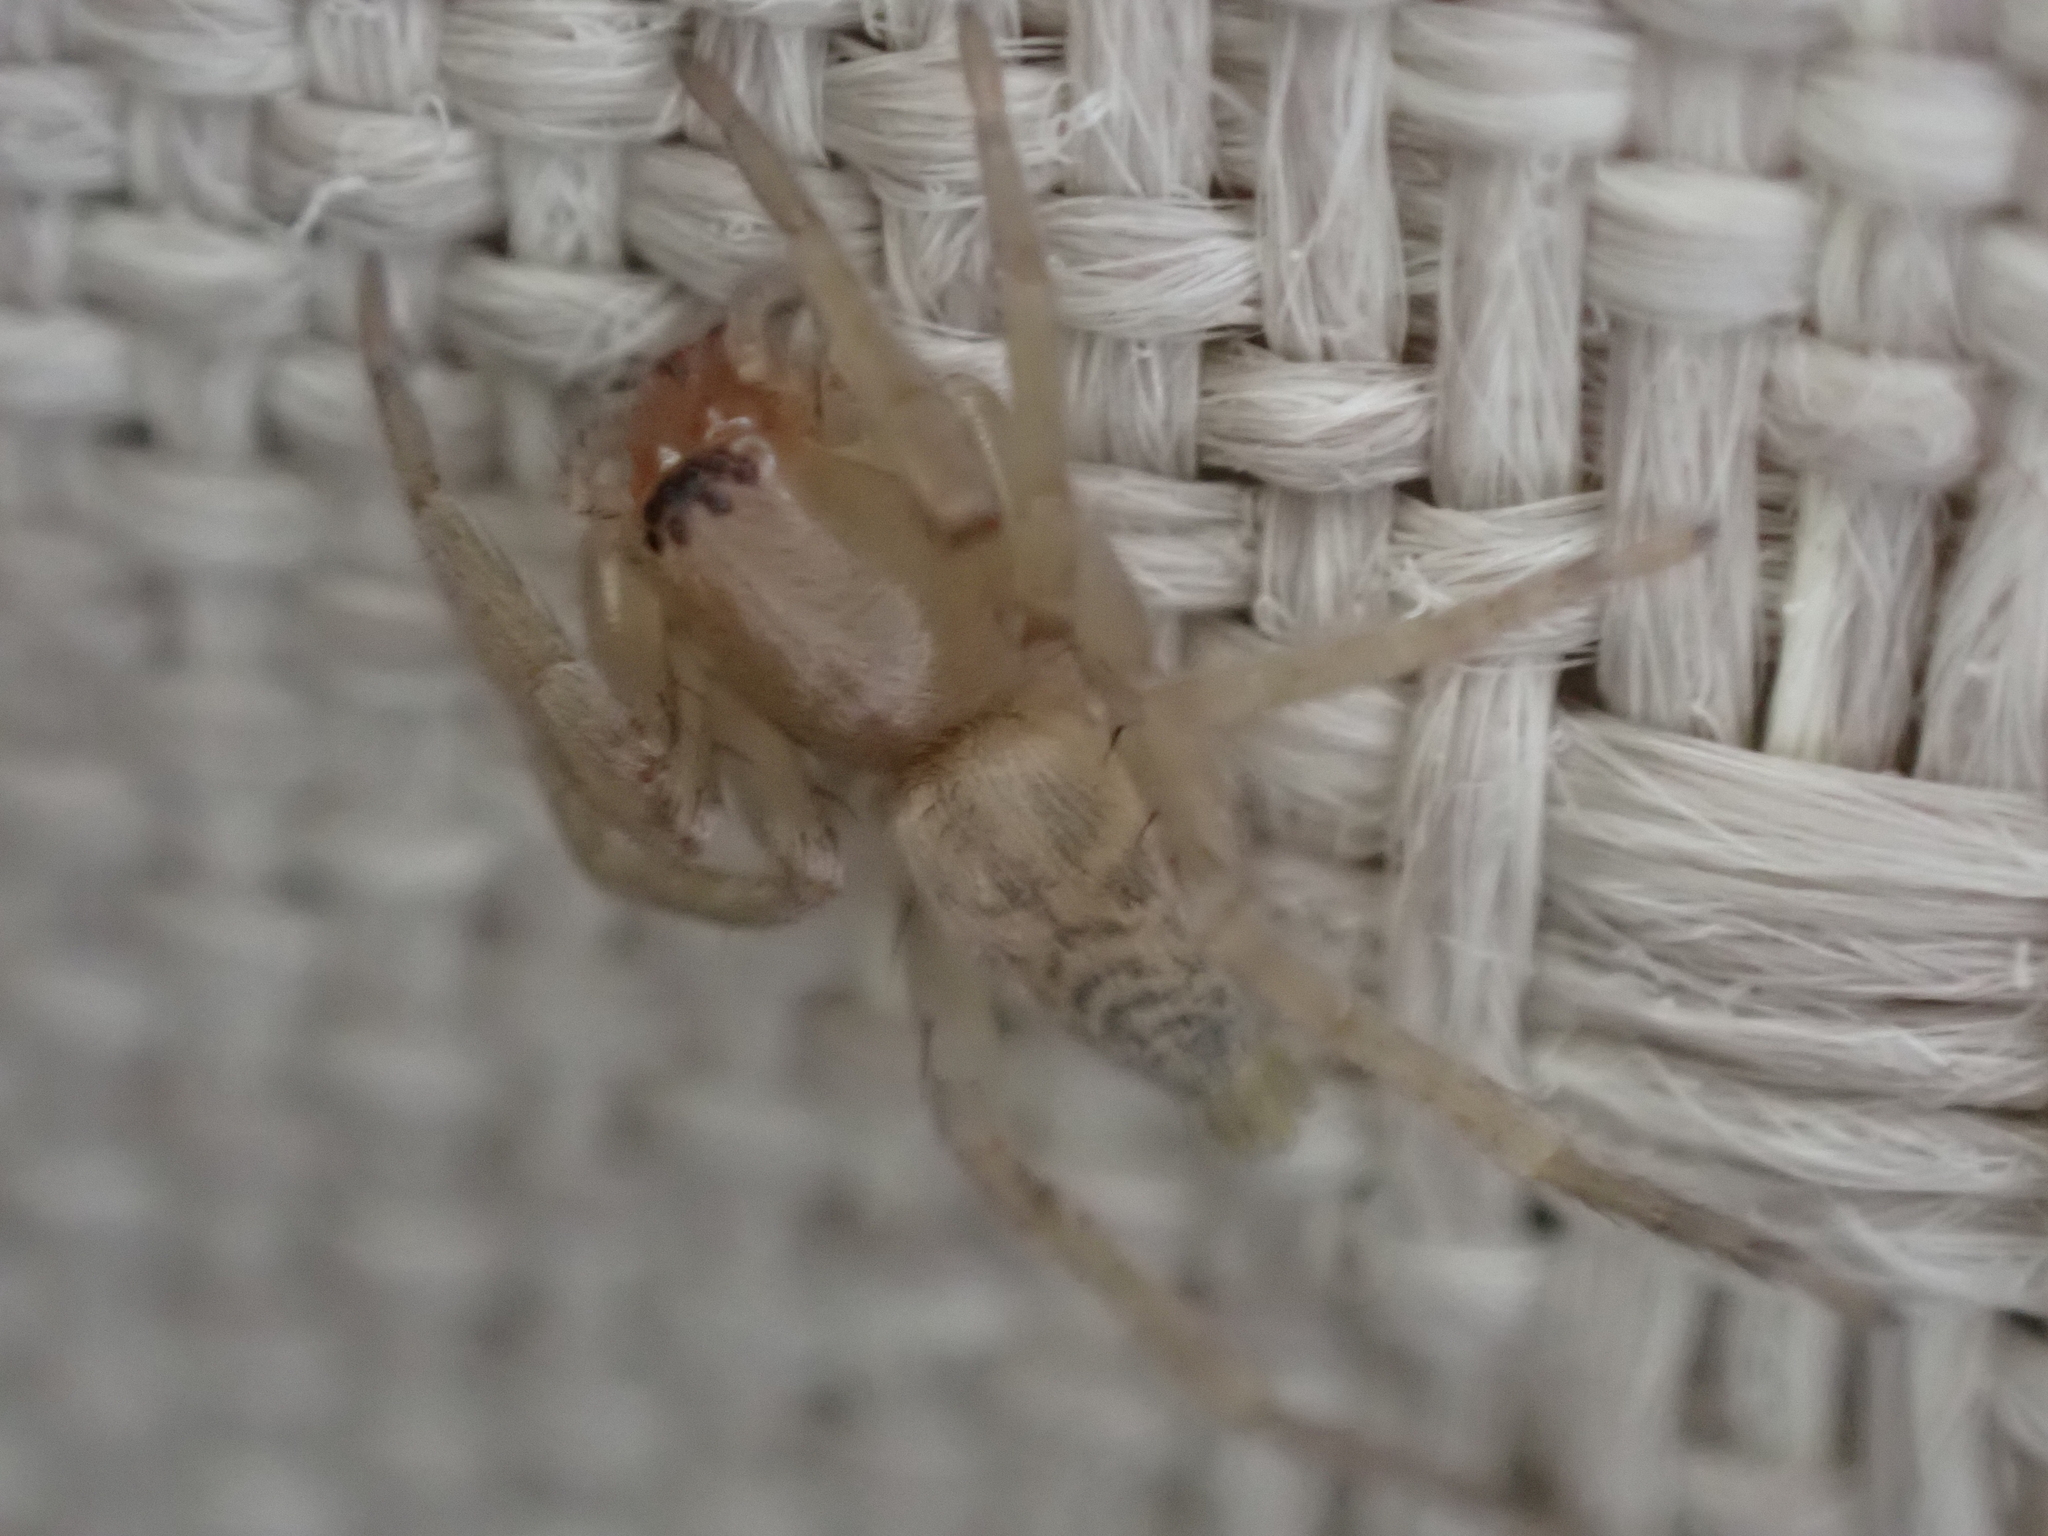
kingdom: Animalia
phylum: Arthropoda
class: Arachnida
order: Araneae
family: Clubionidae
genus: Elaver
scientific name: Elaver excepta
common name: White sac spider
